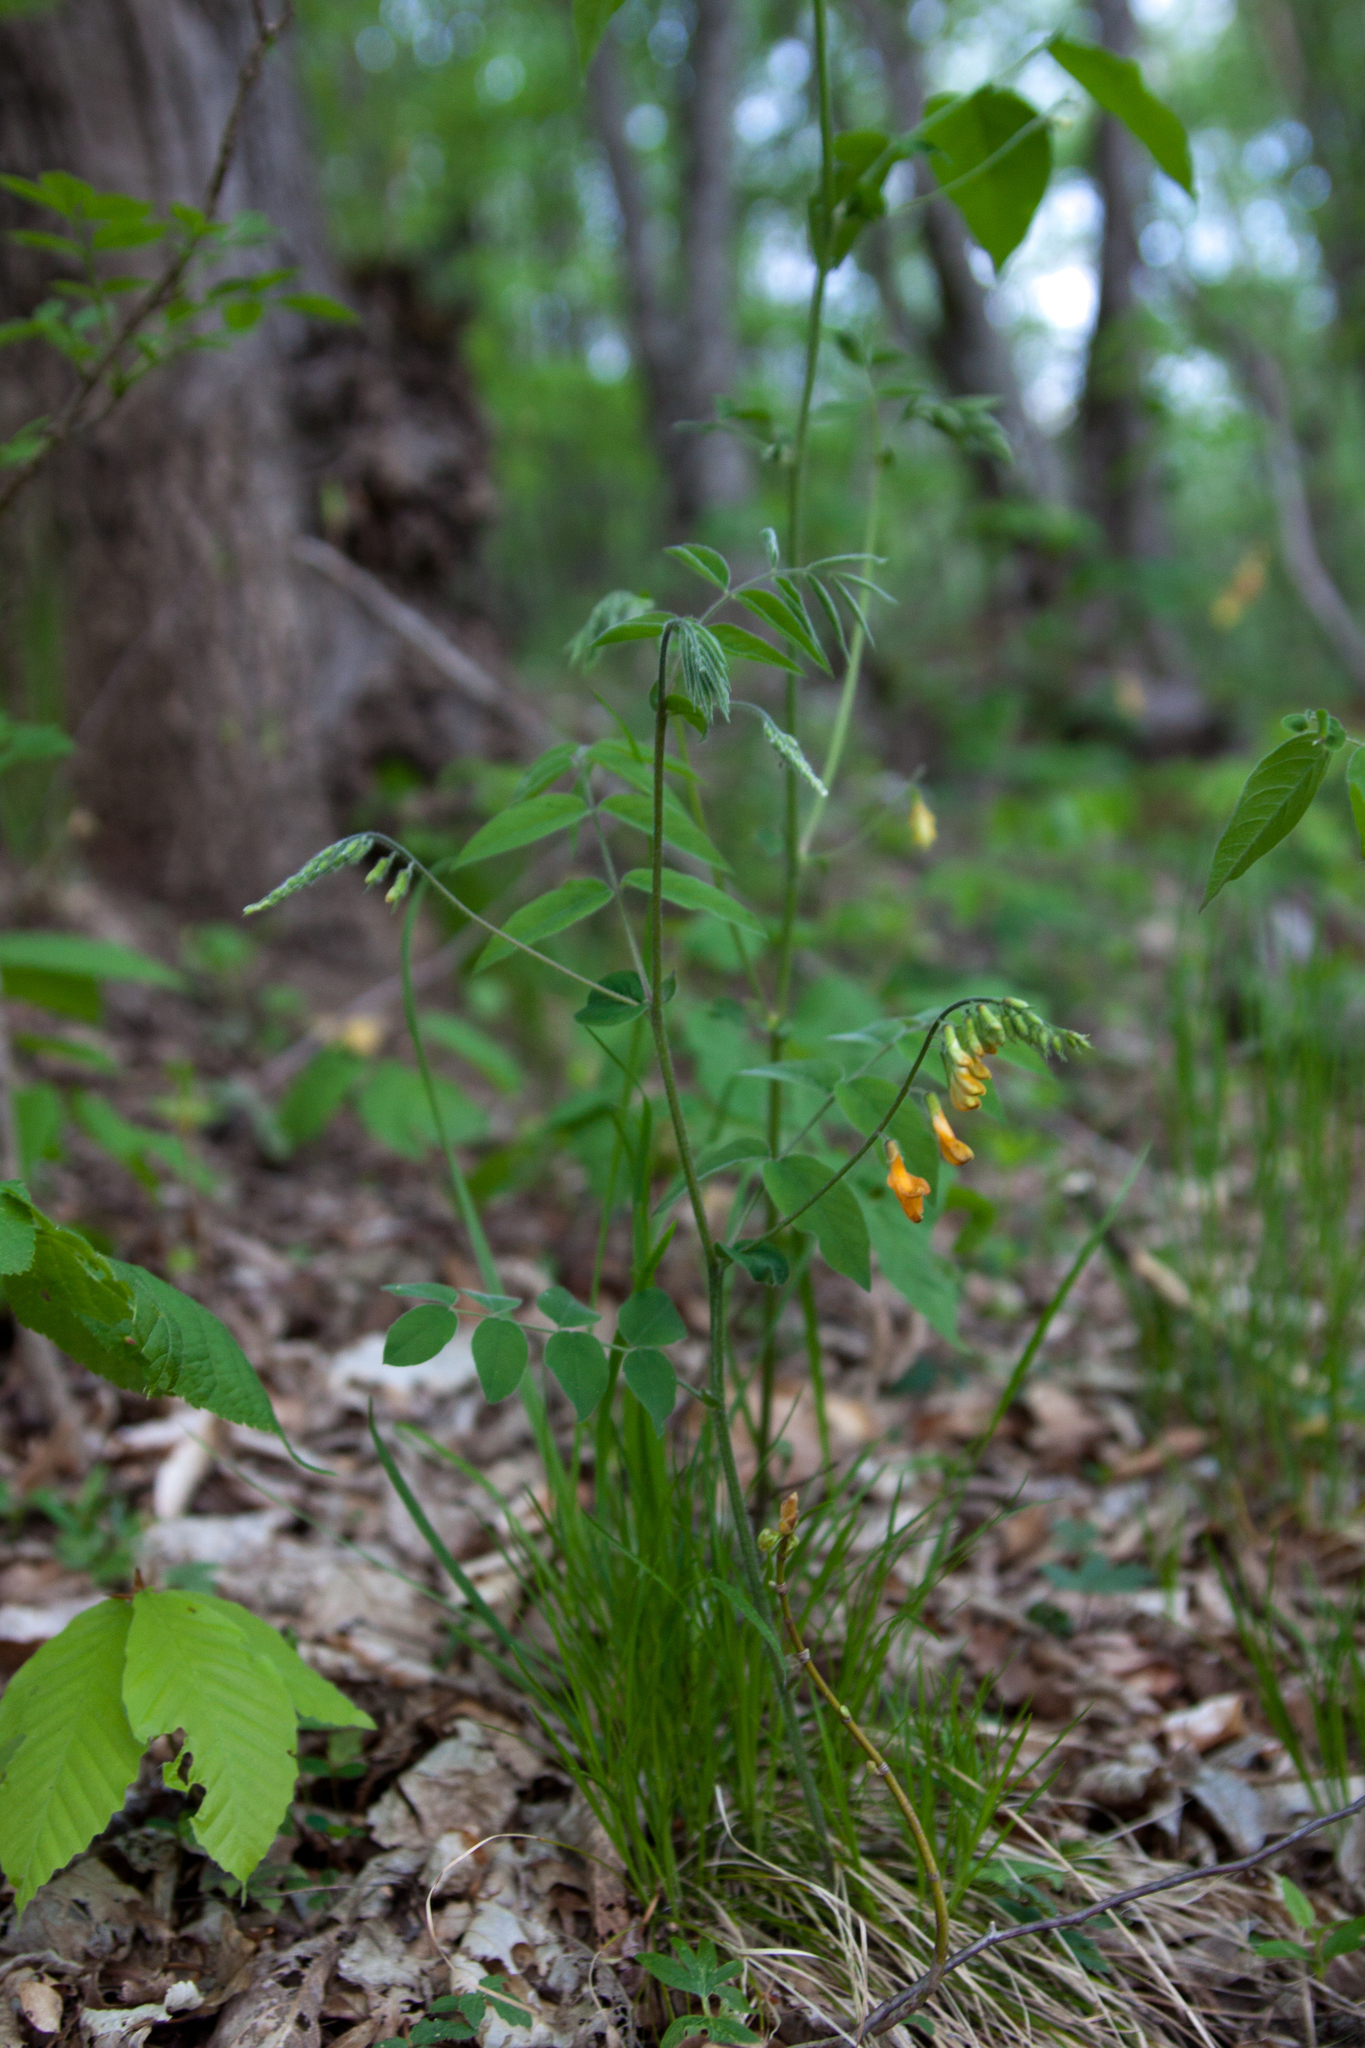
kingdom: Plantae
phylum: Tracheophyta
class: Magnoliopsida
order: Fabales
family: Fabaceae
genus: Vicia
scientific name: Vicia crocea
